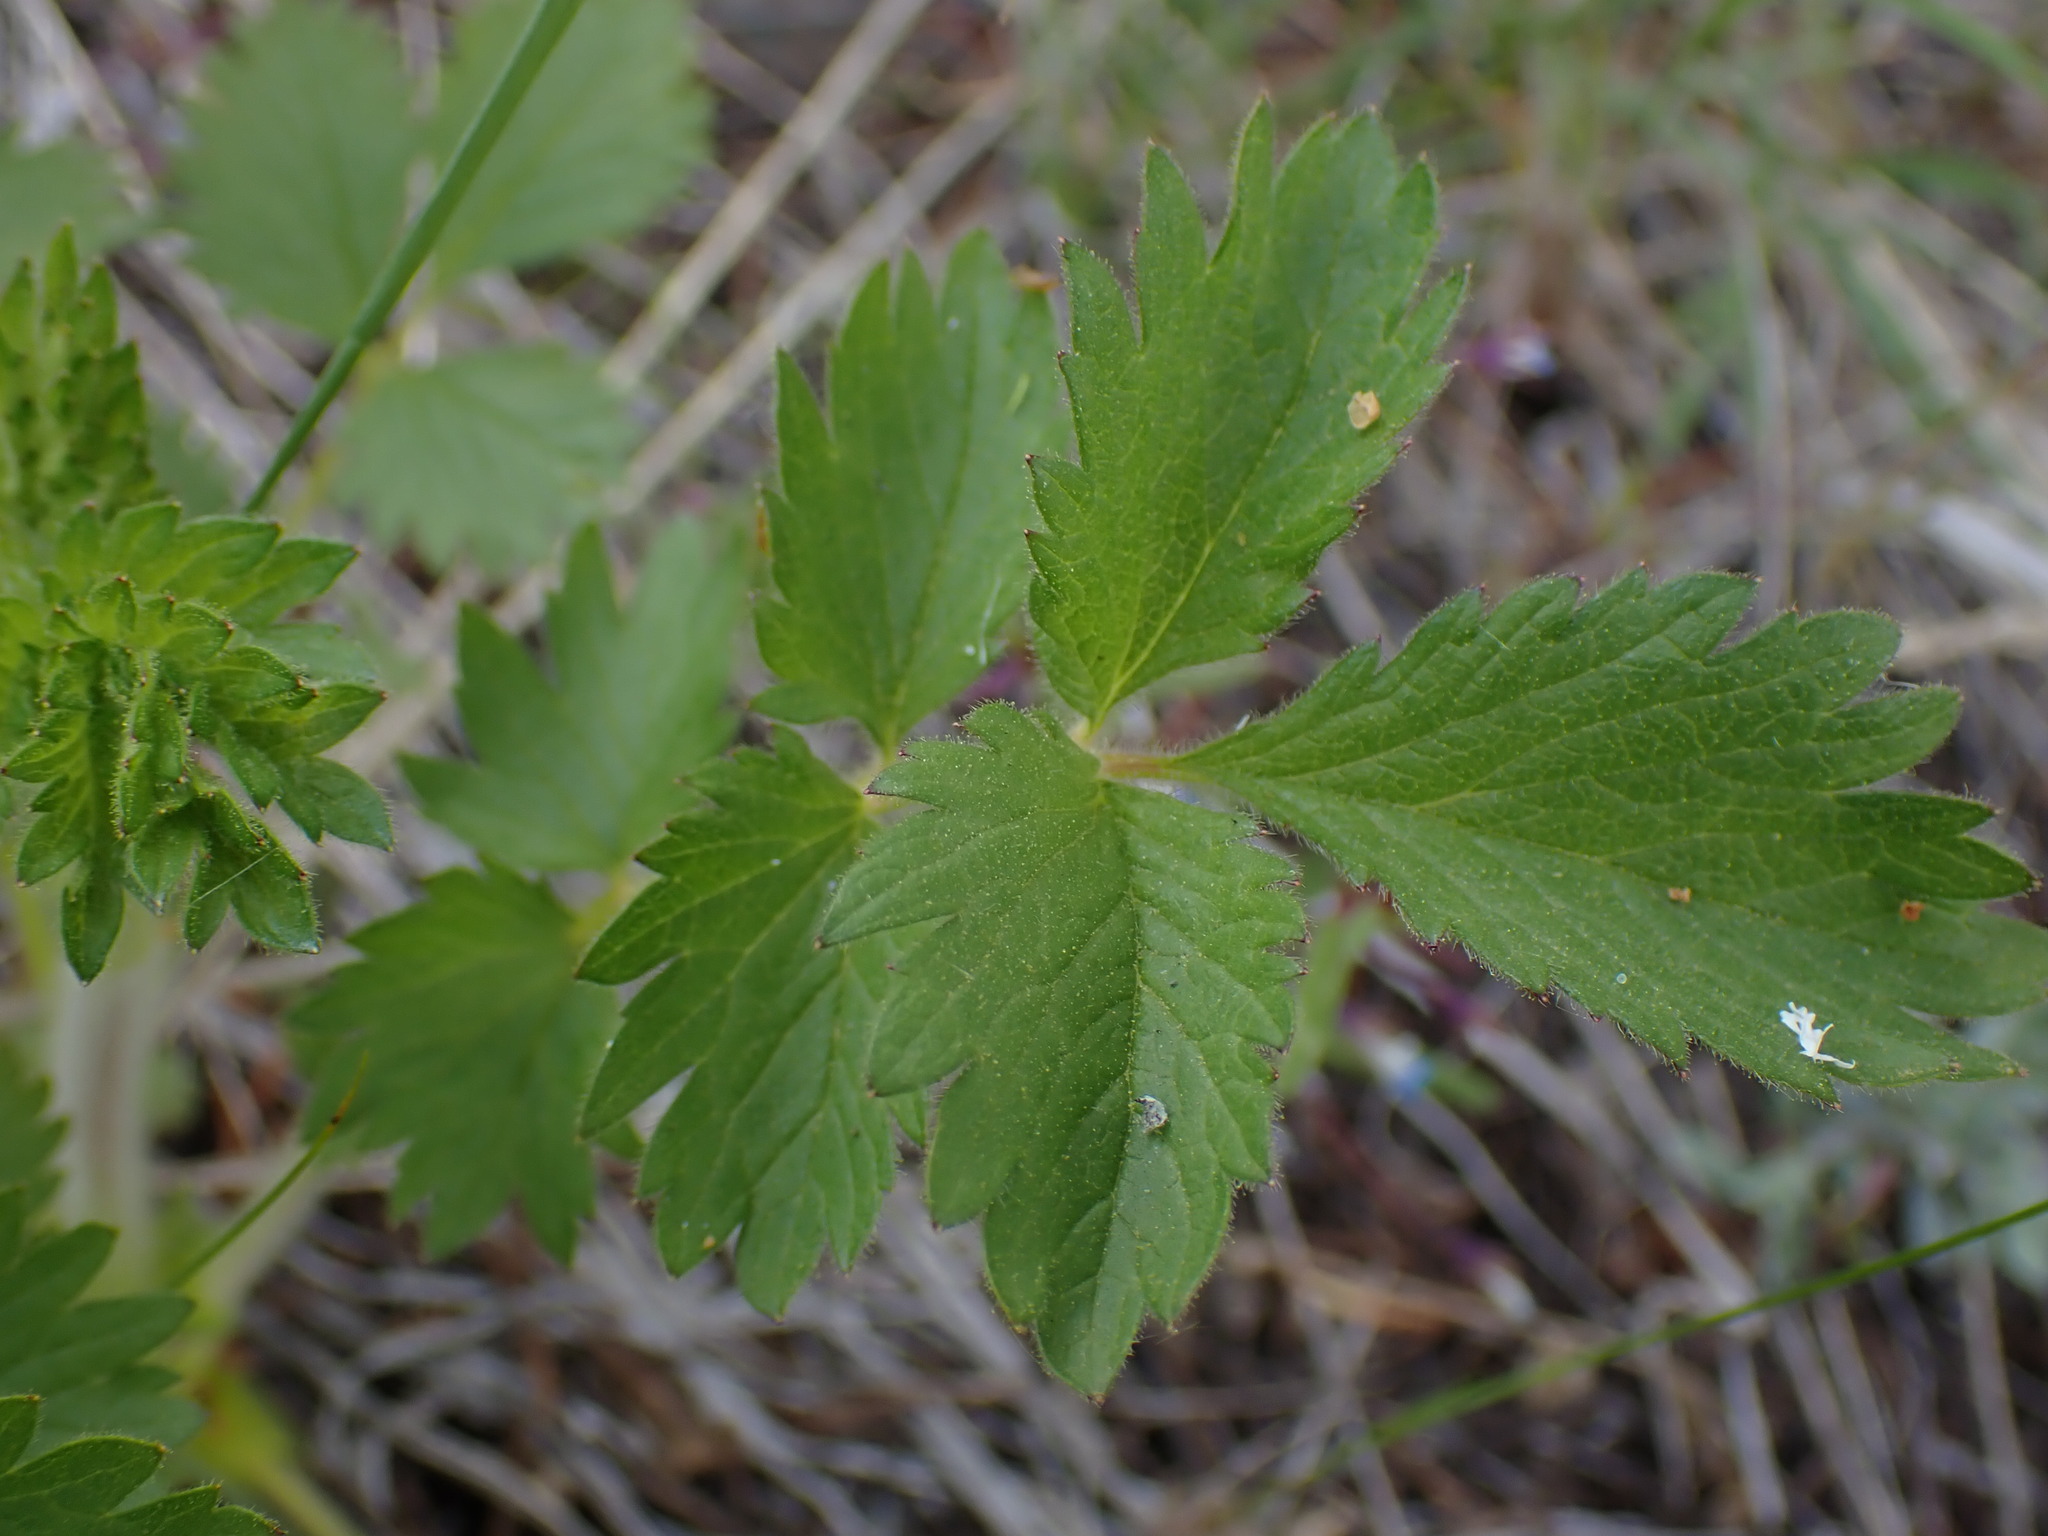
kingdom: Plantae
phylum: Tracheophyta
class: Magnoliopsida
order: Rosales
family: Rosaceae
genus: Drymocallis
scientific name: Drymocallis convallaria
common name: Cream cinquefoil
